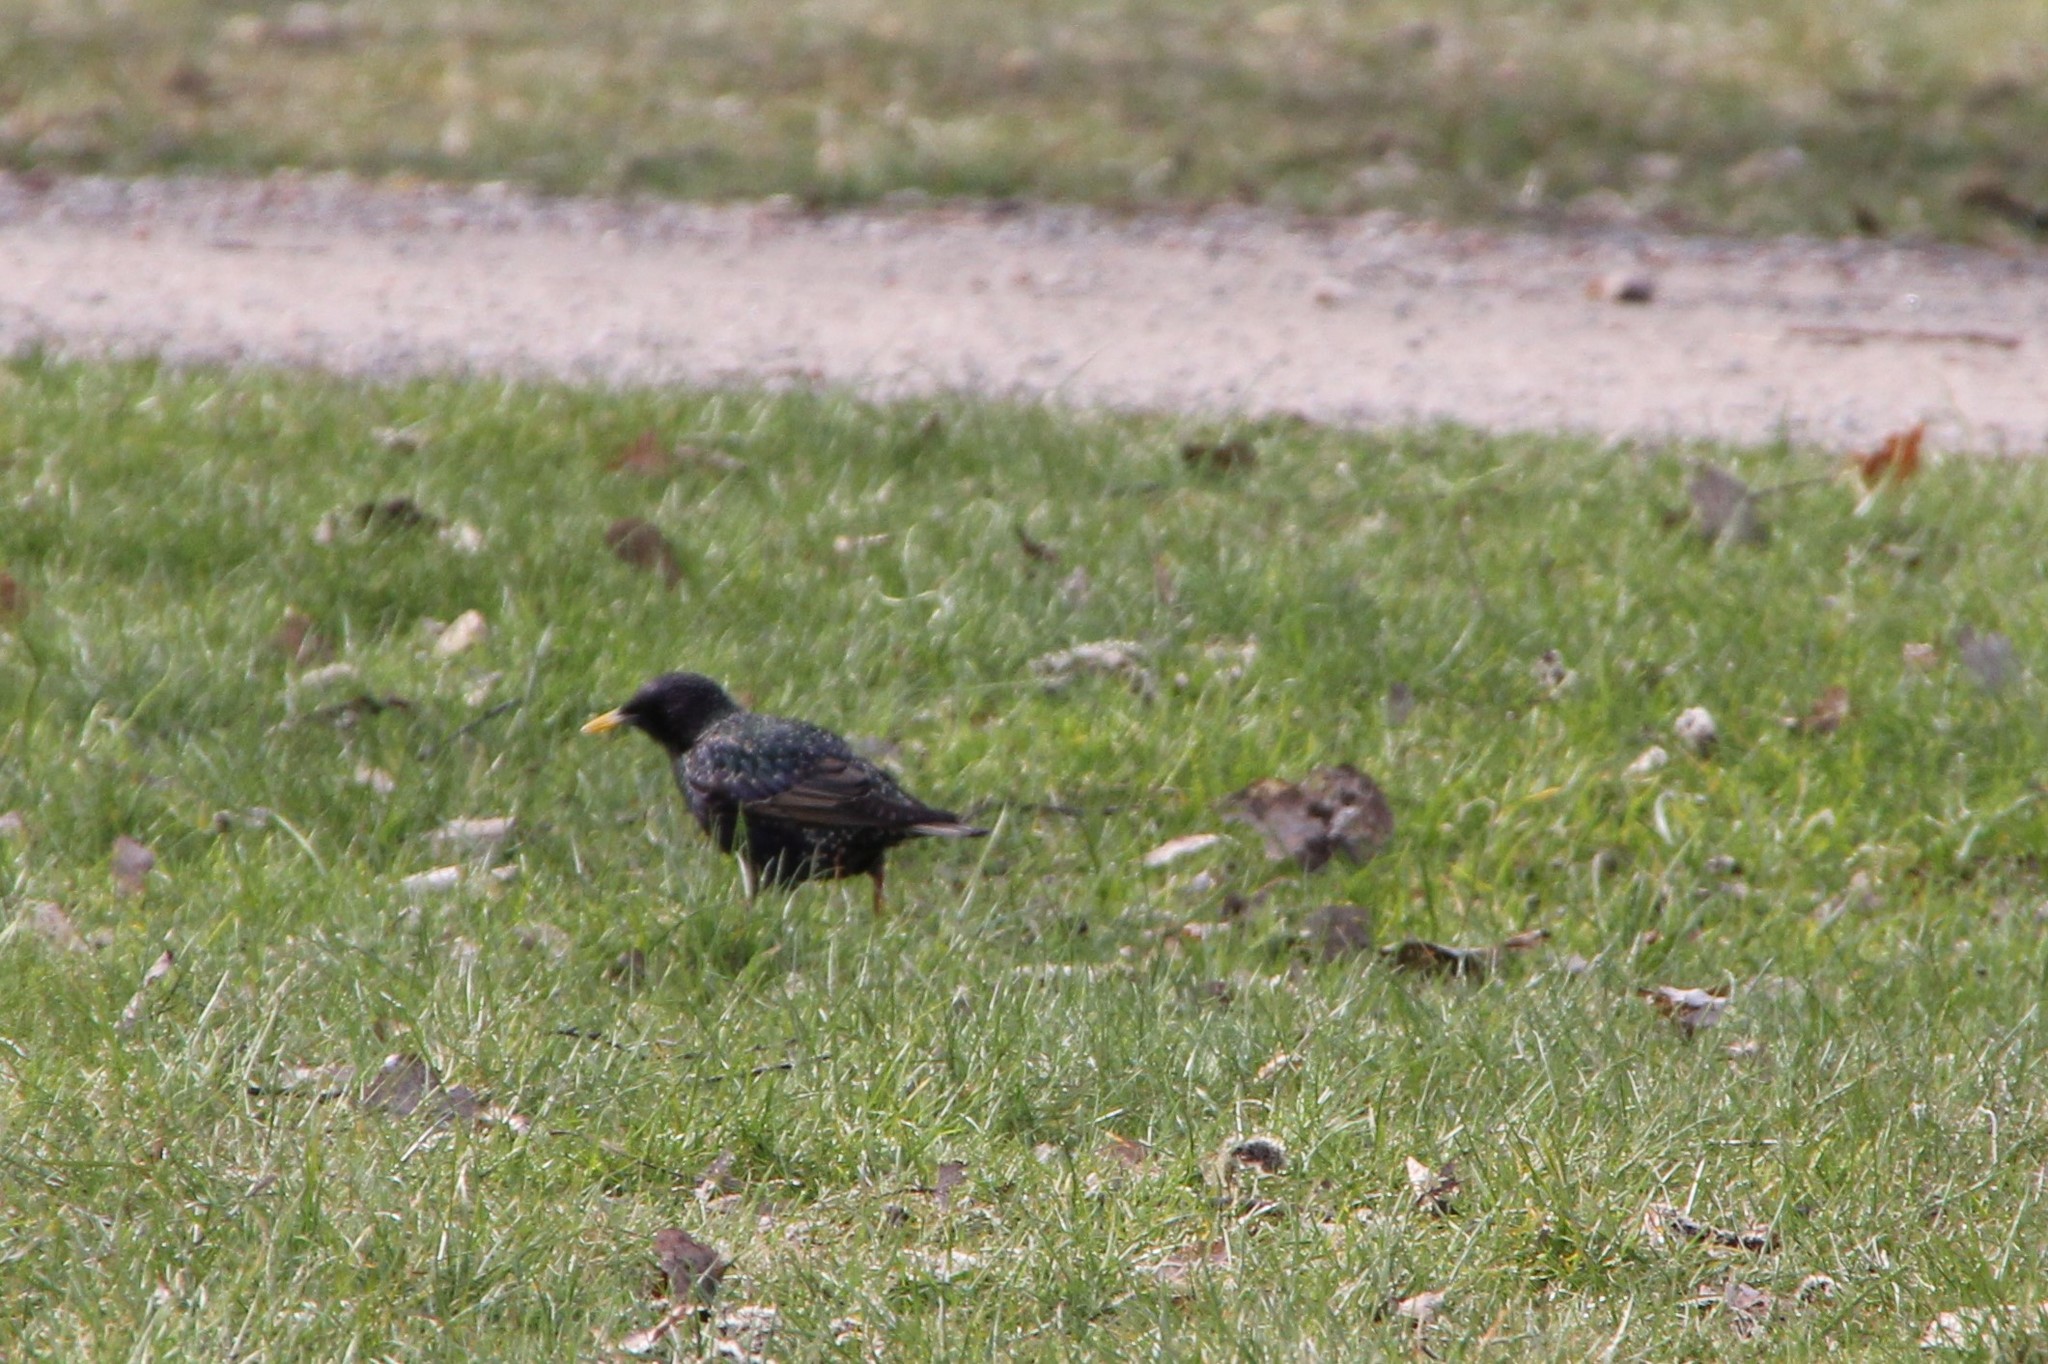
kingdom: Animalia
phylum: Chordata
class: Aves
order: Passeriformes
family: Sturnidae
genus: Sturnus
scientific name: Sturnus vulgaris
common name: Common starling
